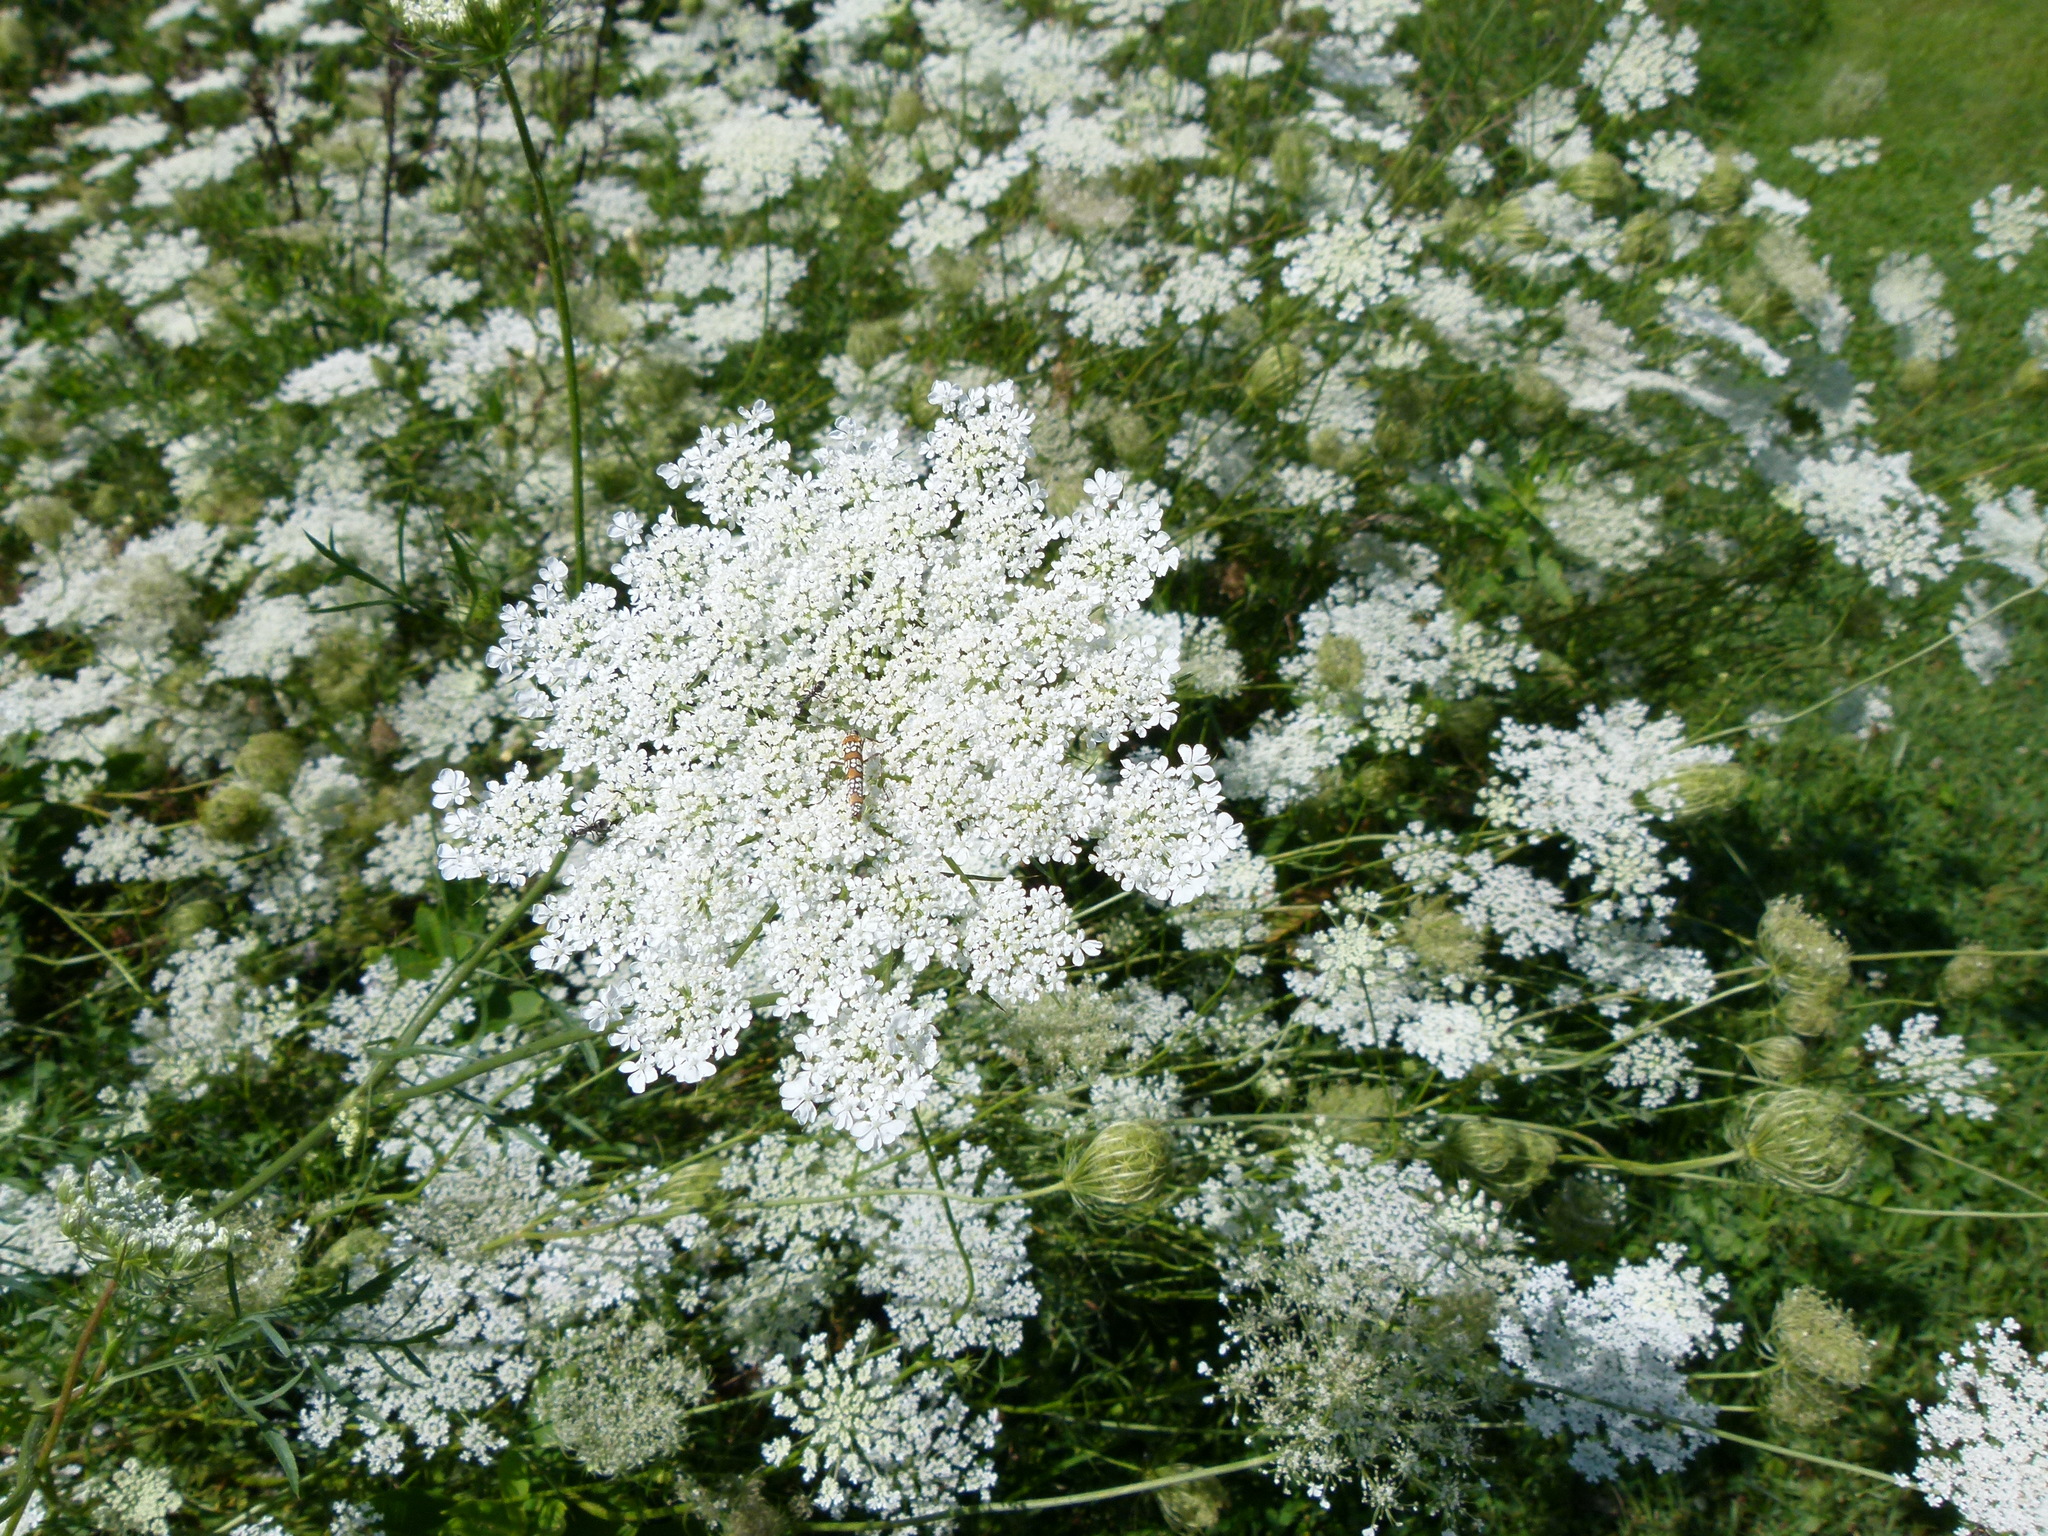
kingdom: Plantae
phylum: Tracheophyta
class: Magnoliopsida
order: Apiales
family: Apiaceae
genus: Daucus
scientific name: Daucus carota
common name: Wild carrot
